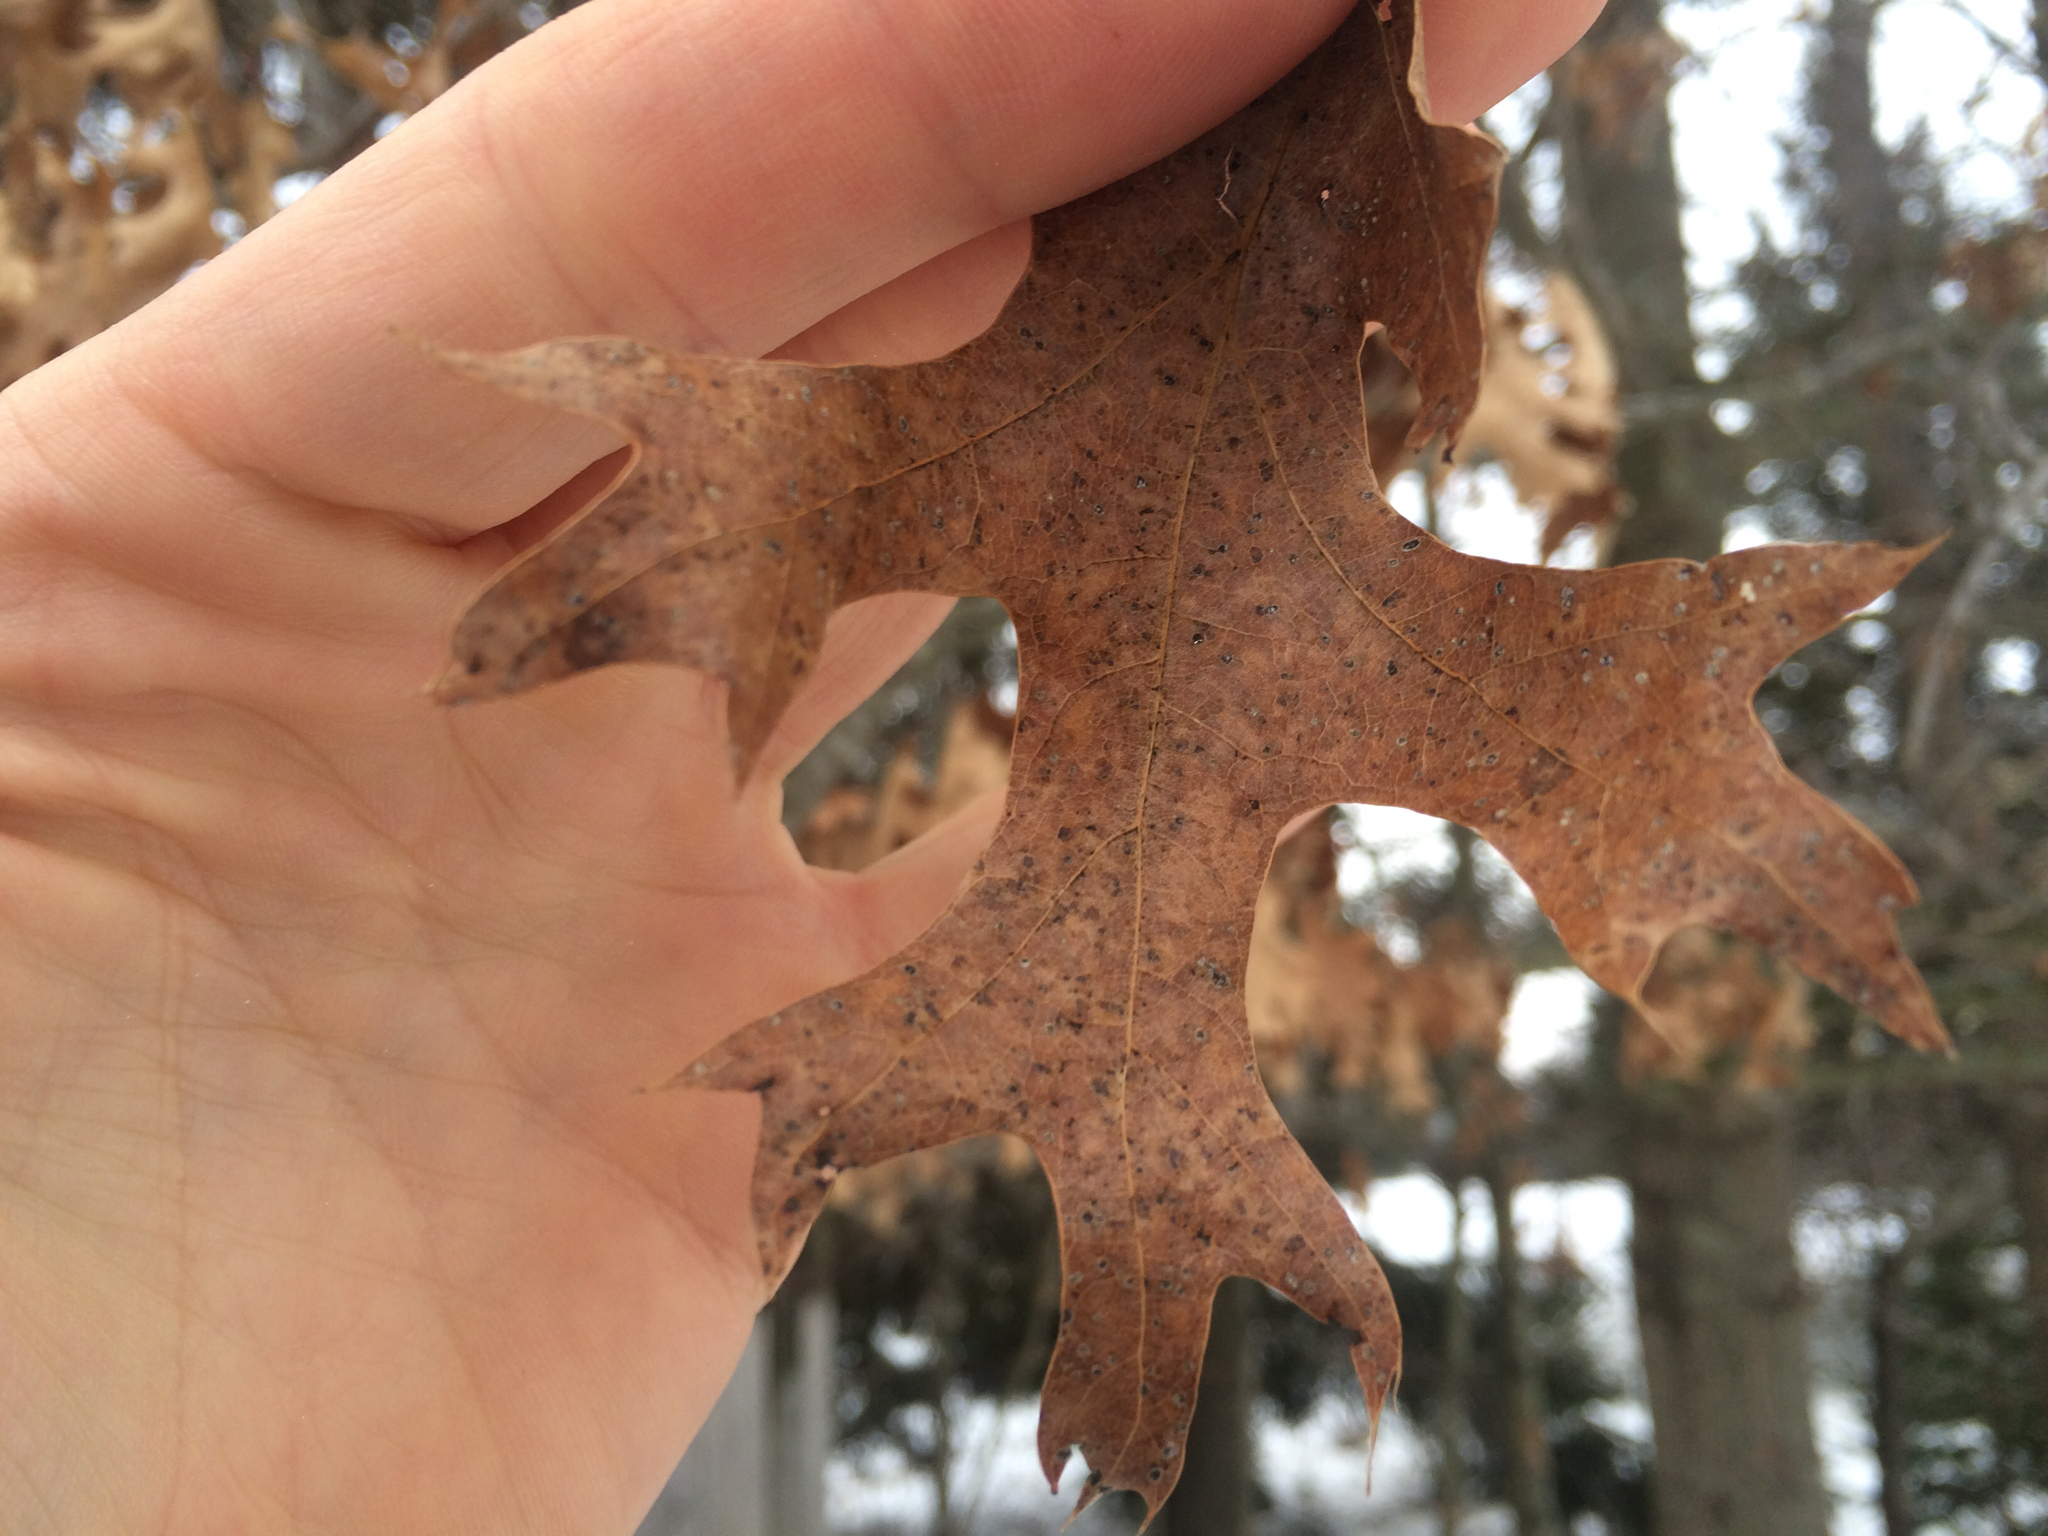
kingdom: Plantae
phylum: Tracheophyta
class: Magnoliopsida
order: Fagales
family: Fagaceae
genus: Quercus
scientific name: Quercus ellipsoidalis
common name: Hill's oak
